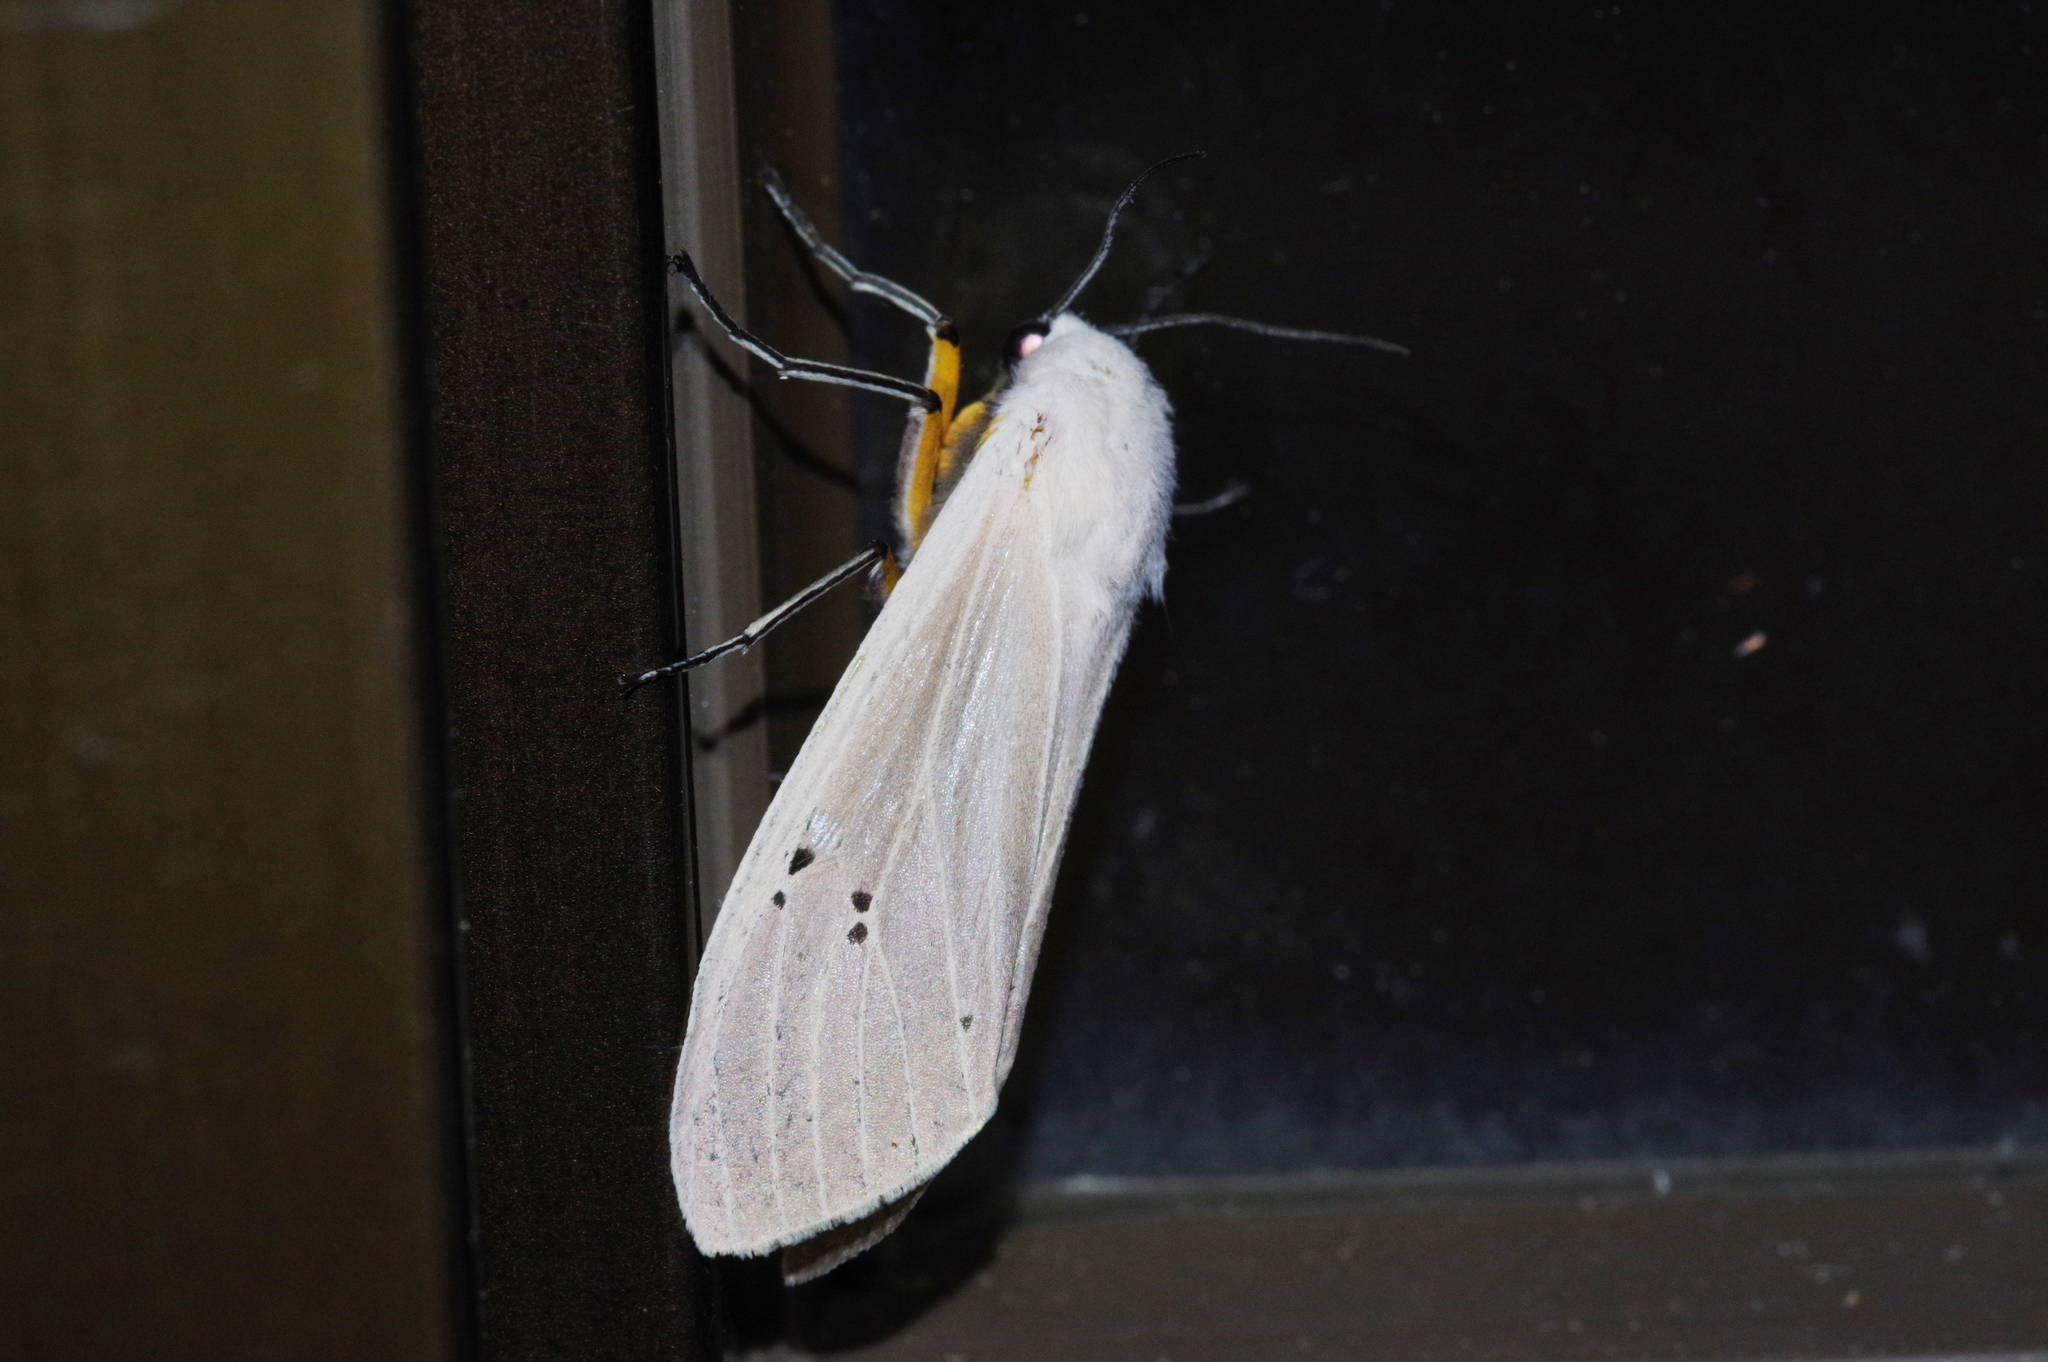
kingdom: Animalia
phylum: Arthropoda
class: Insecta
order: Lepidoptera
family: Erebidae
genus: Creatonotos
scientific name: Creatonotos transiens
